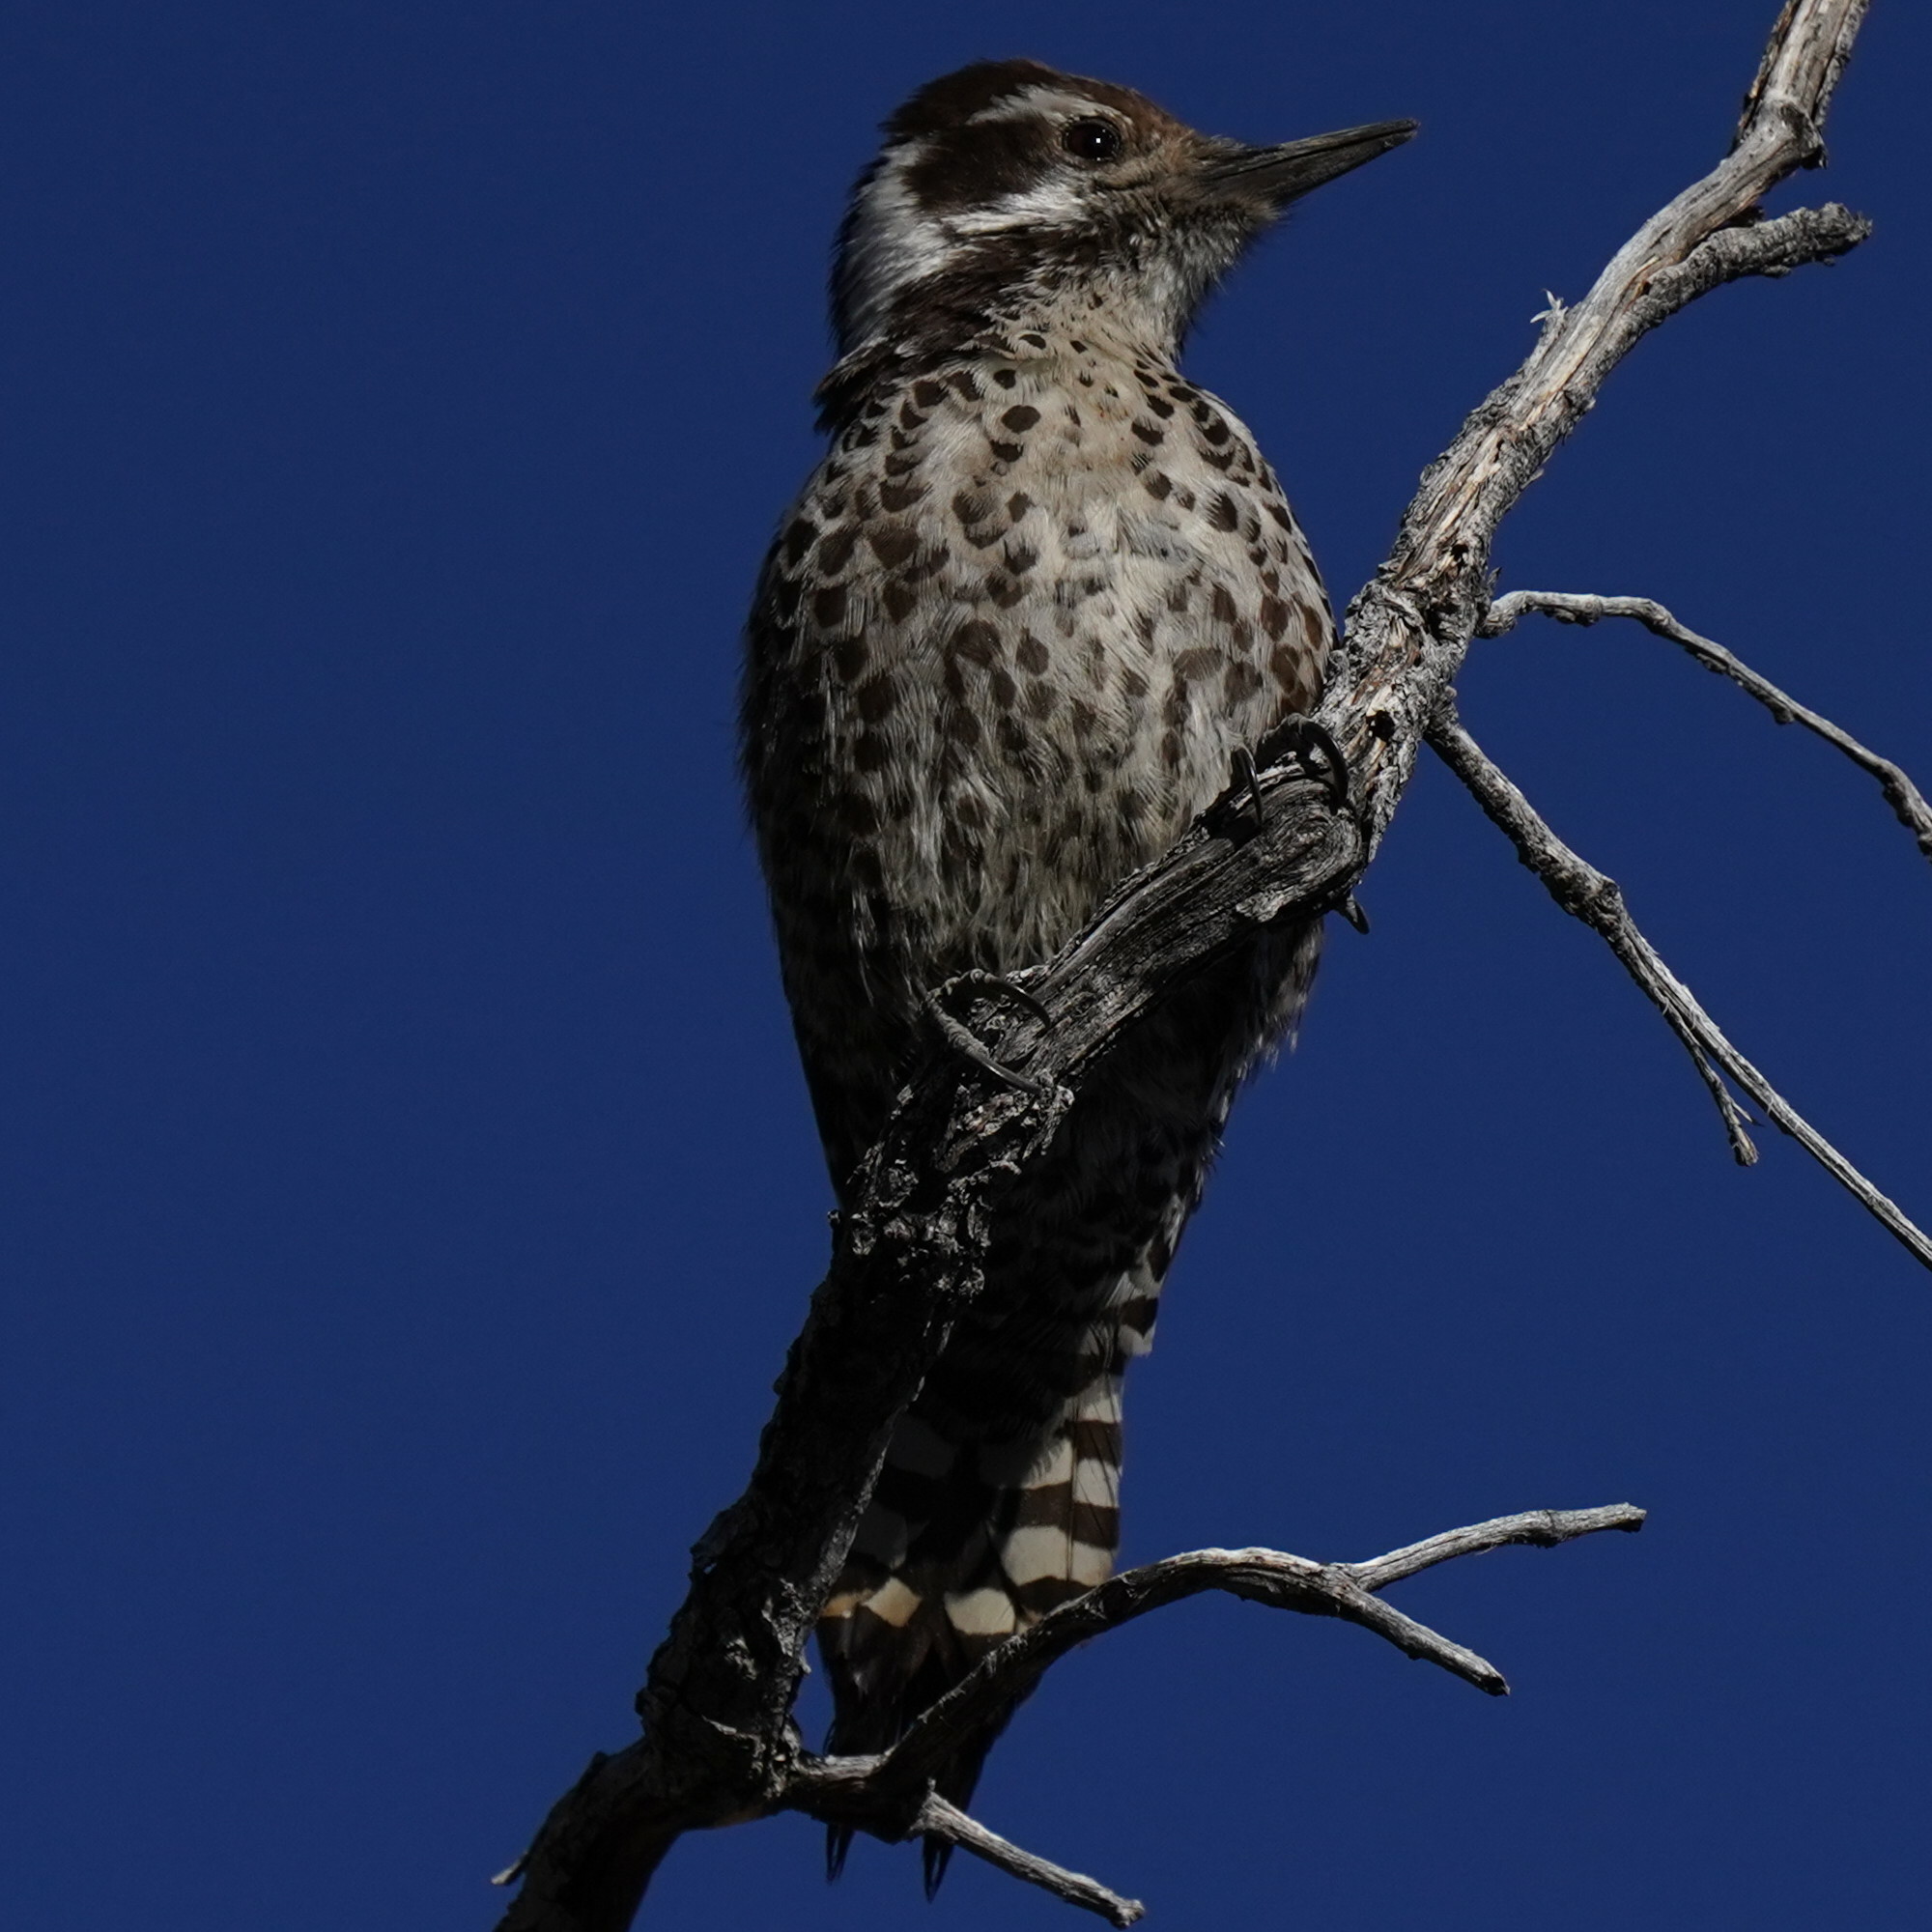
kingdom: Animalia
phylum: Chordata
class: Aves
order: Piciformes
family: Picidae
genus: Leuconotopicus
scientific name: Leuconotopicus arizonae
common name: Arizona woodpecker
